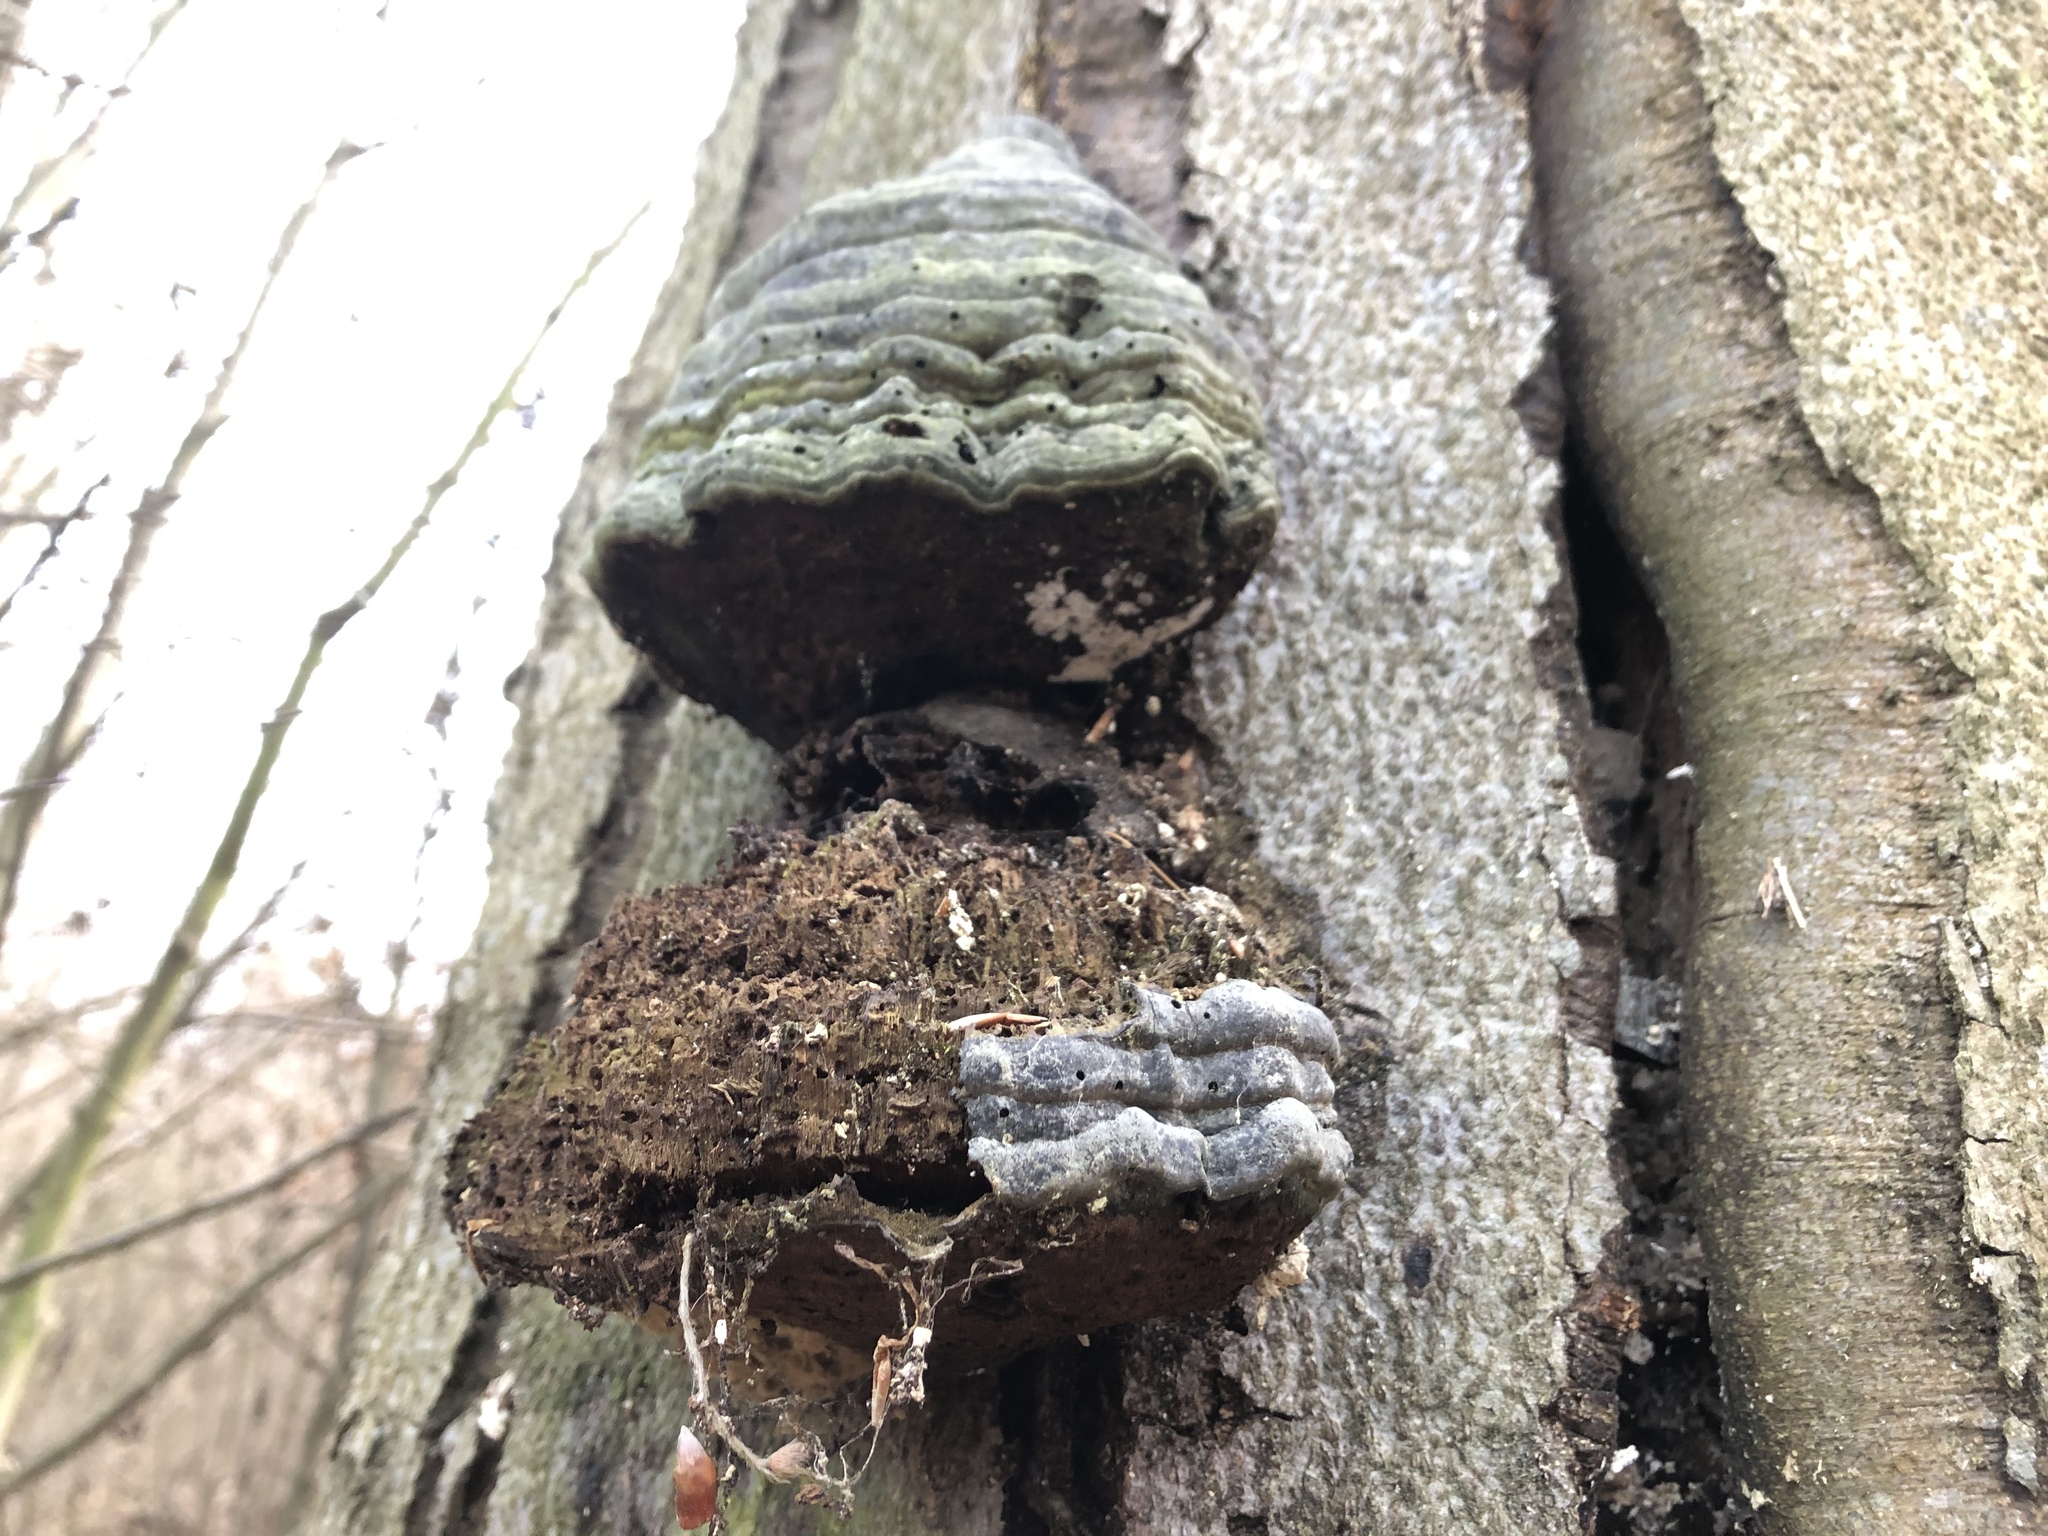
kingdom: Fungi
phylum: Basidiomycota
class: Agaricomycetes
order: Polyporales
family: Polyporaceae
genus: Fomes
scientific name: Fomes fomentarius
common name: Hoof fungus
